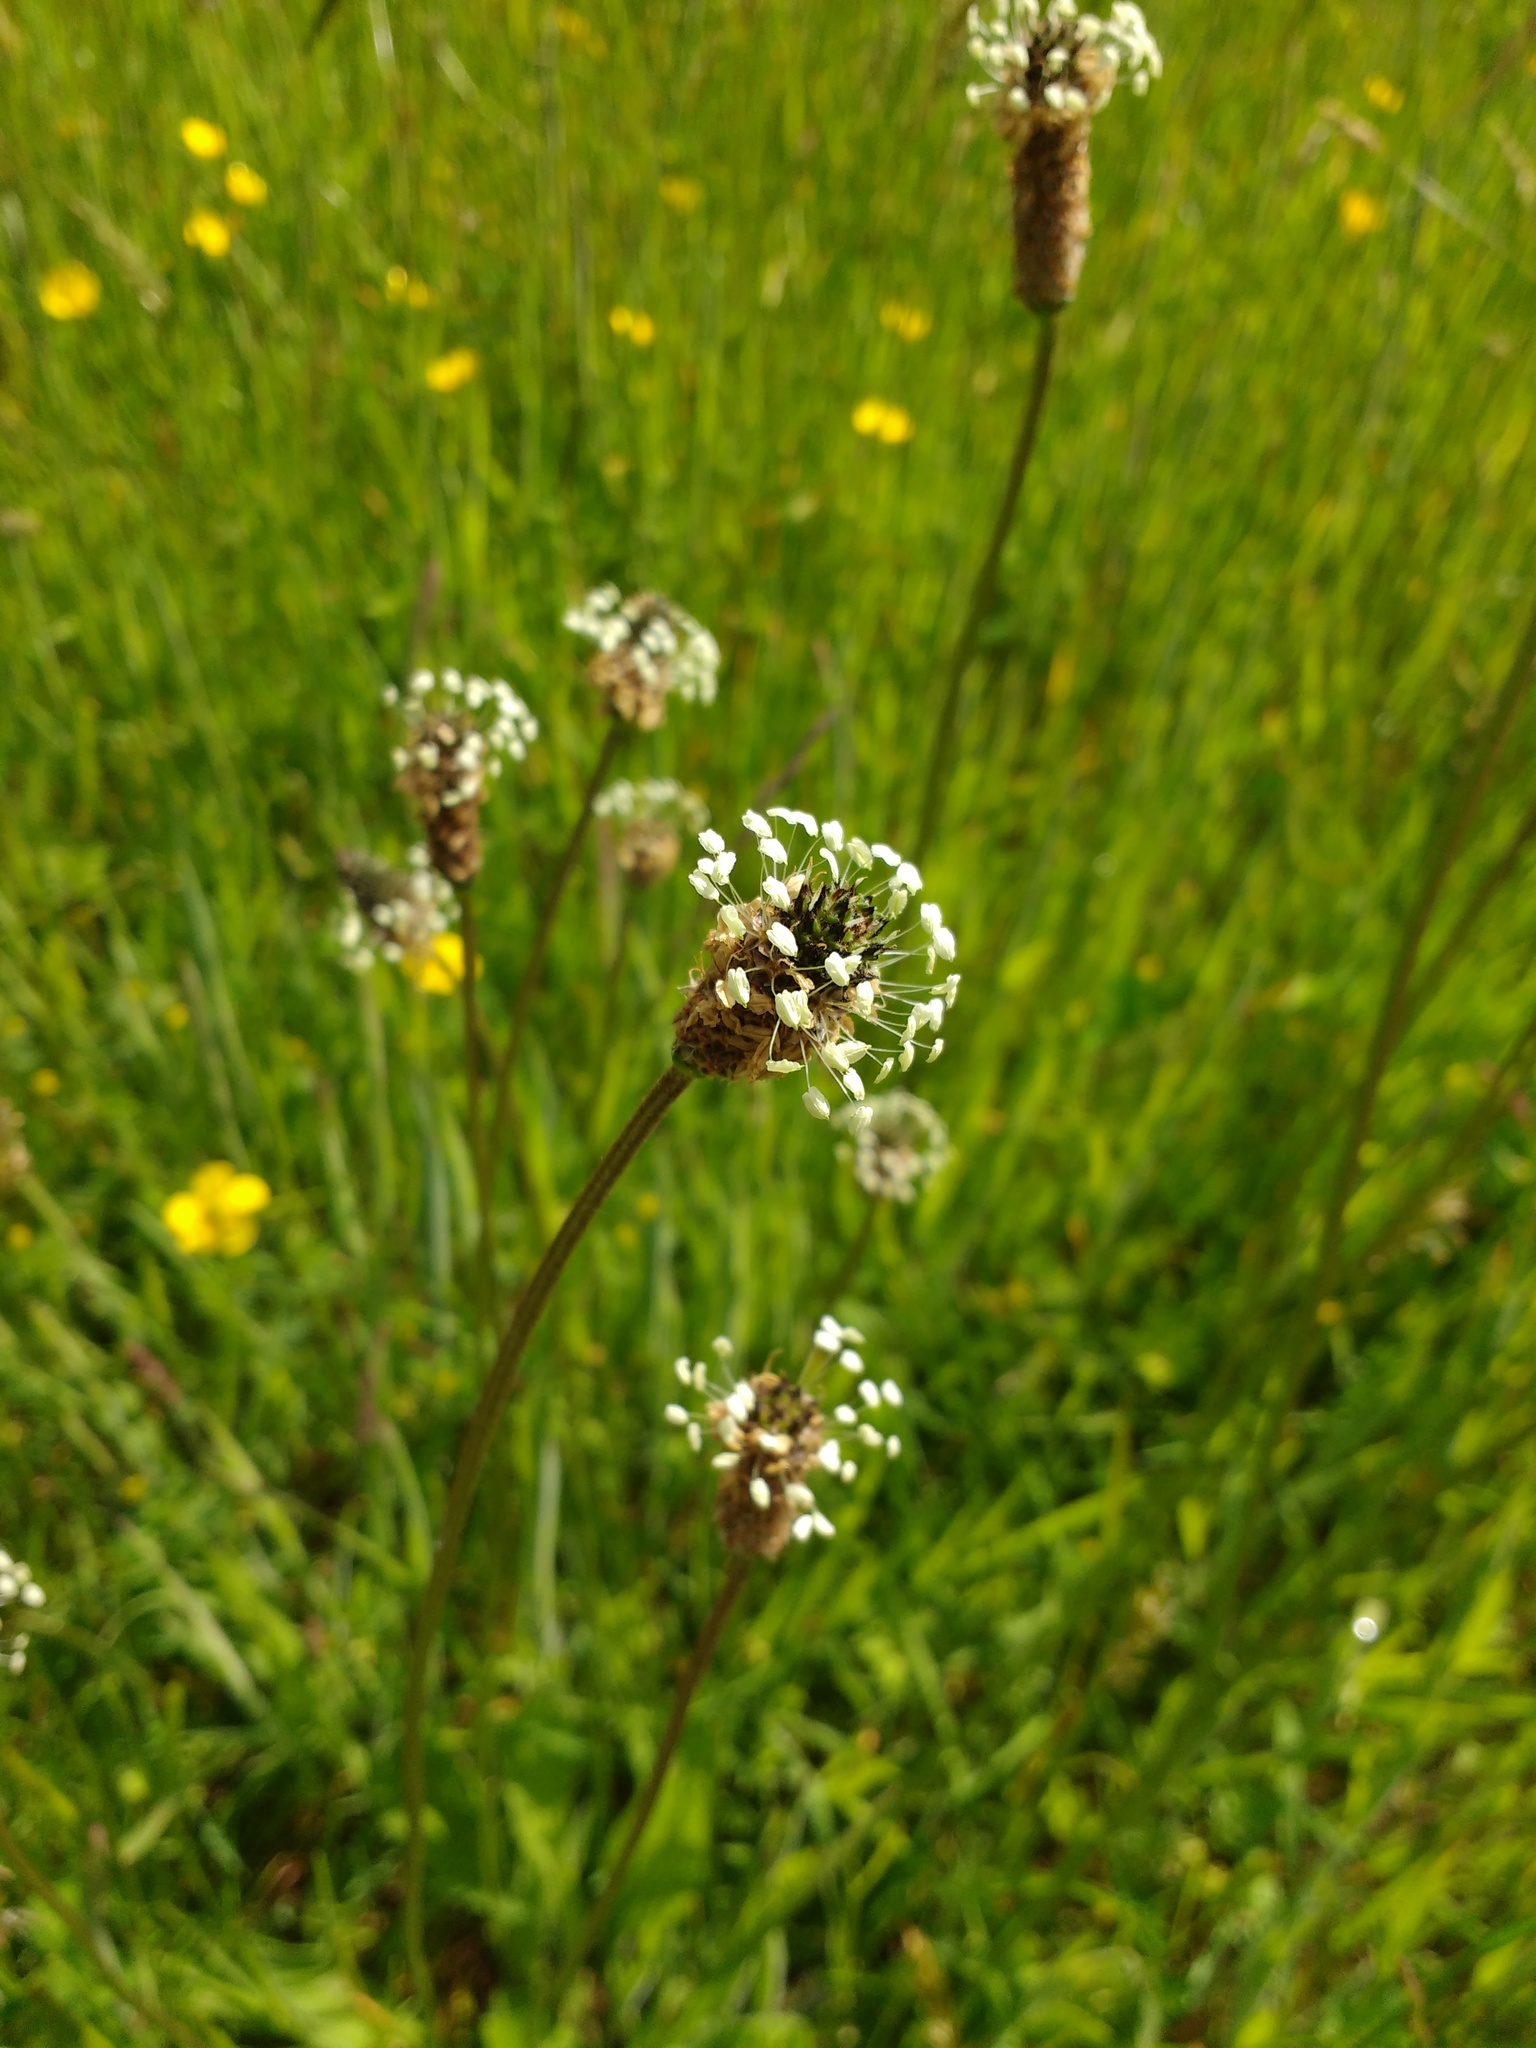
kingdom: Plantae
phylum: Tracheophyta
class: Magnoliopsida
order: Lamiales
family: Plantaginaceae
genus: Plantago
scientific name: Plantago lanceolata
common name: Ribwort plantain
